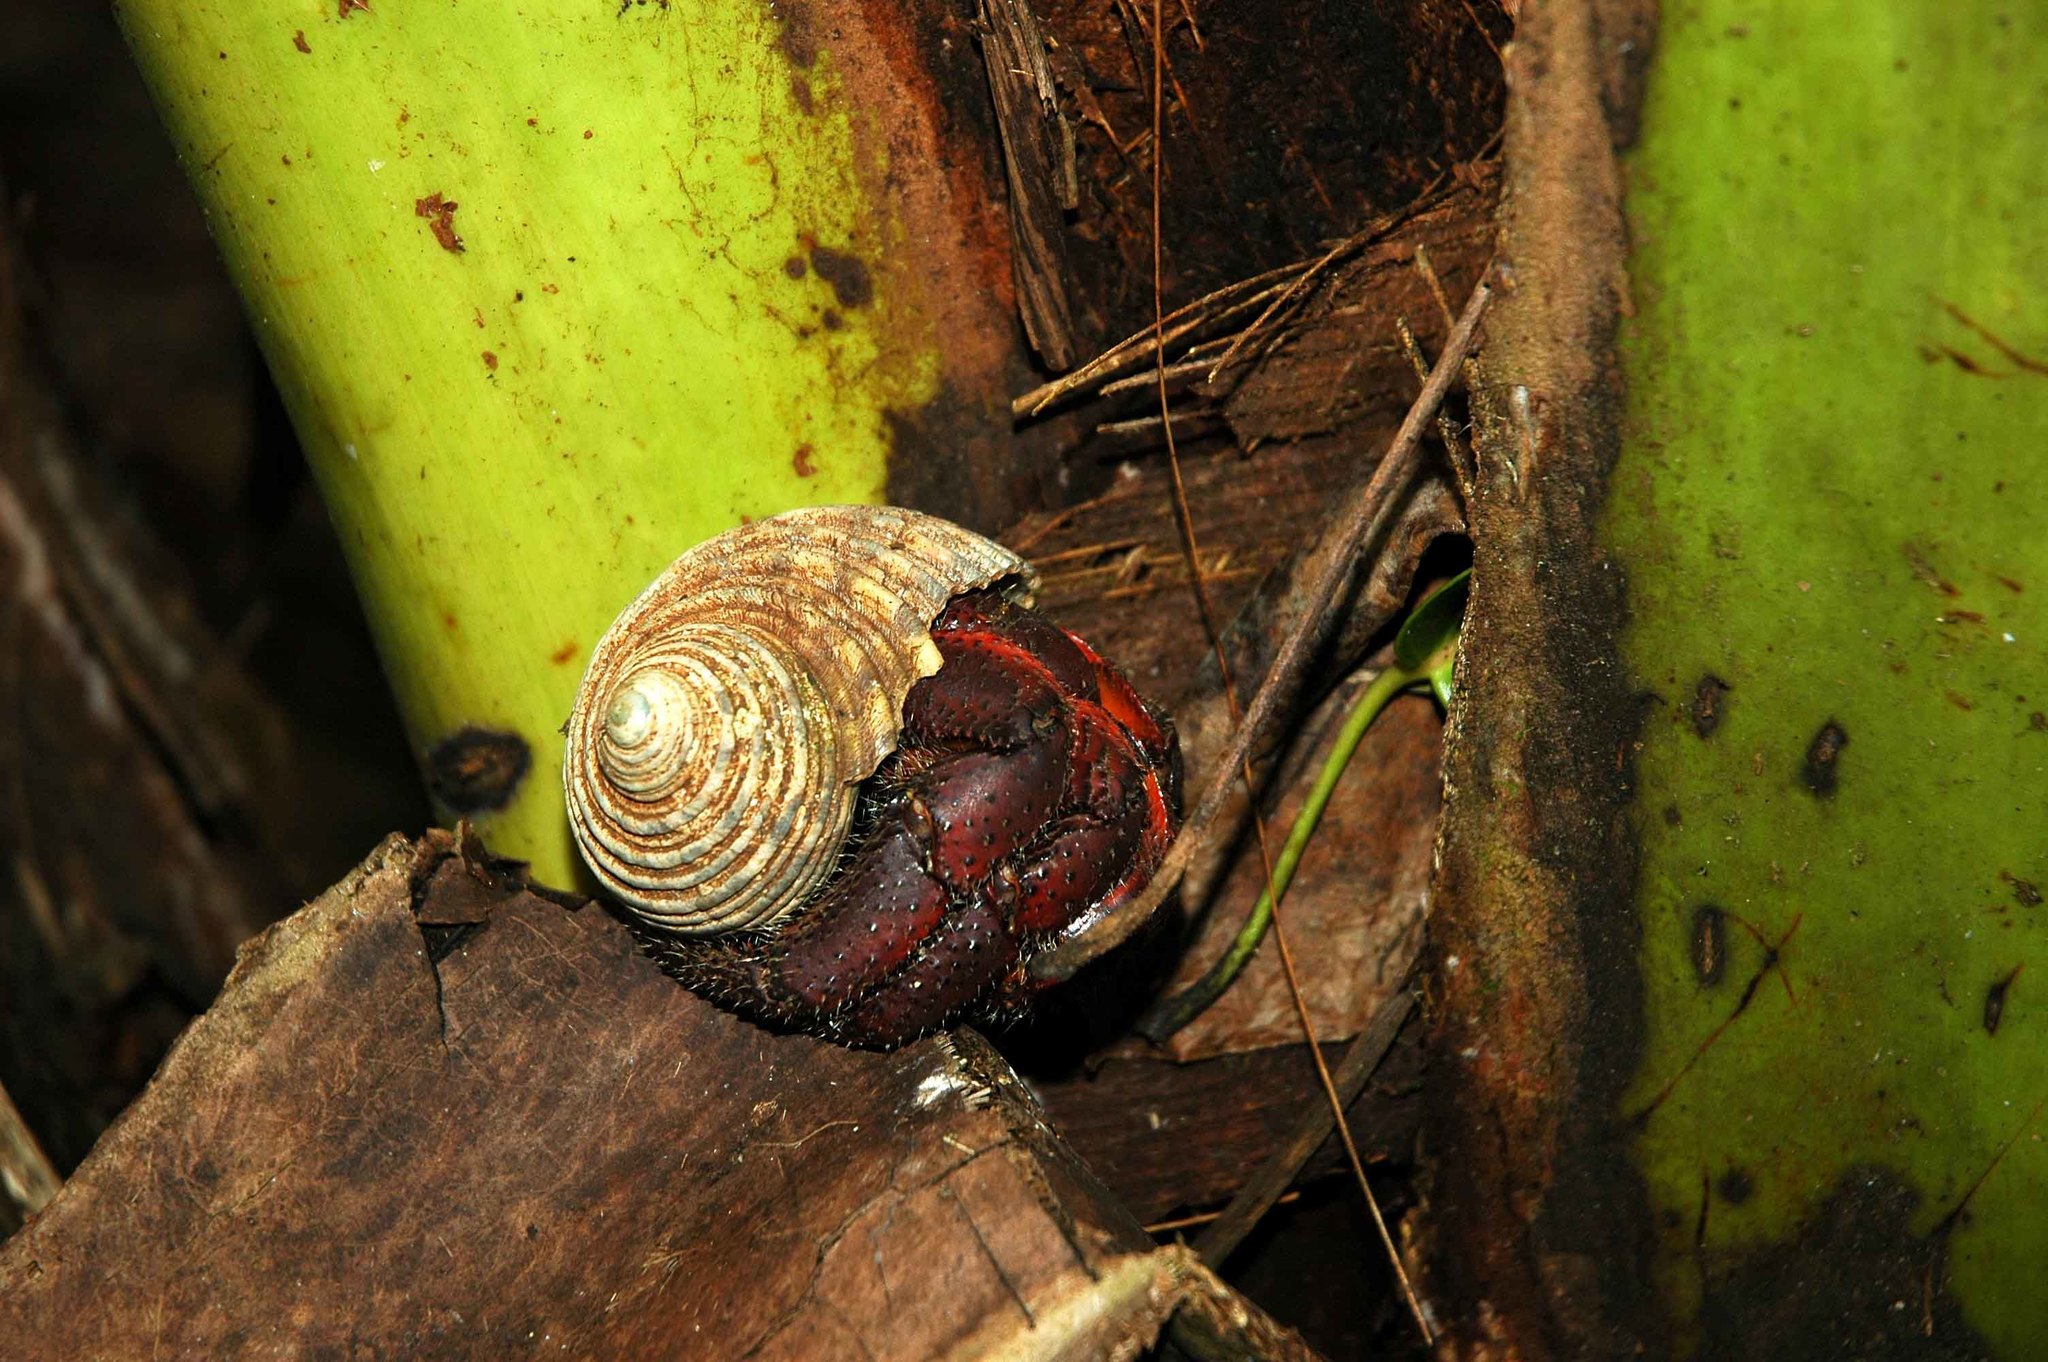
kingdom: Animalia
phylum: Arthropoda
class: Malacostraca
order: Decapoda
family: Coenobitidae
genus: Coenobita
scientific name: Coenobita spinosus
